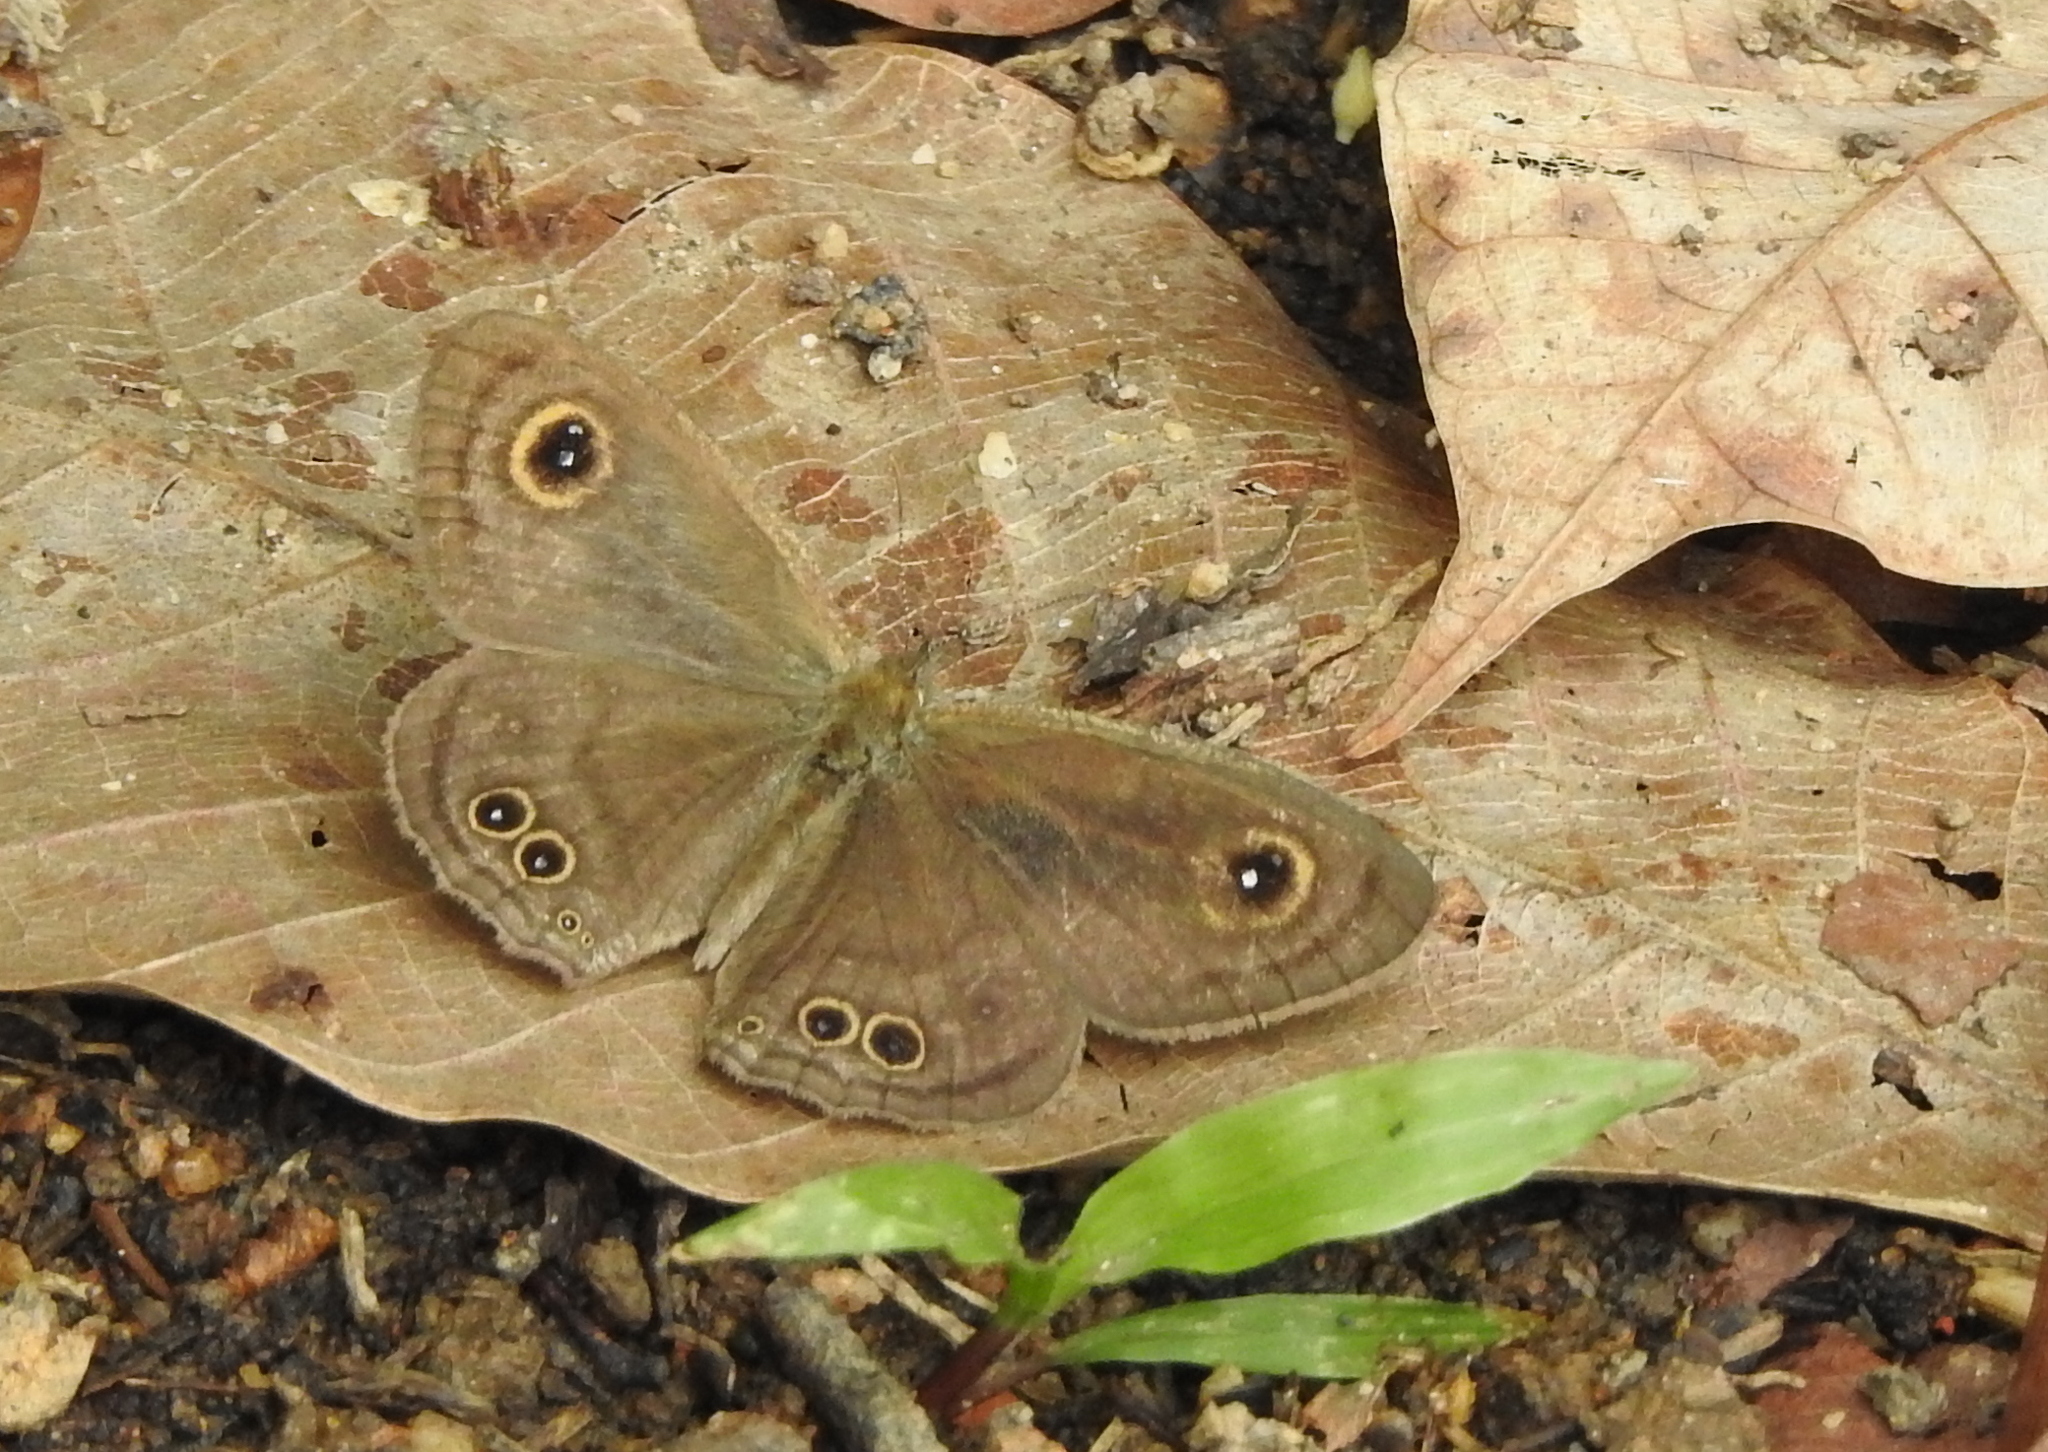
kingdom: Animalia
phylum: Arthropoda
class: Insecta
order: Lepidoptera
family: Nymphalidae
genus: Ypthima
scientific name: Ypthima baldus
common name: Common five-ring
